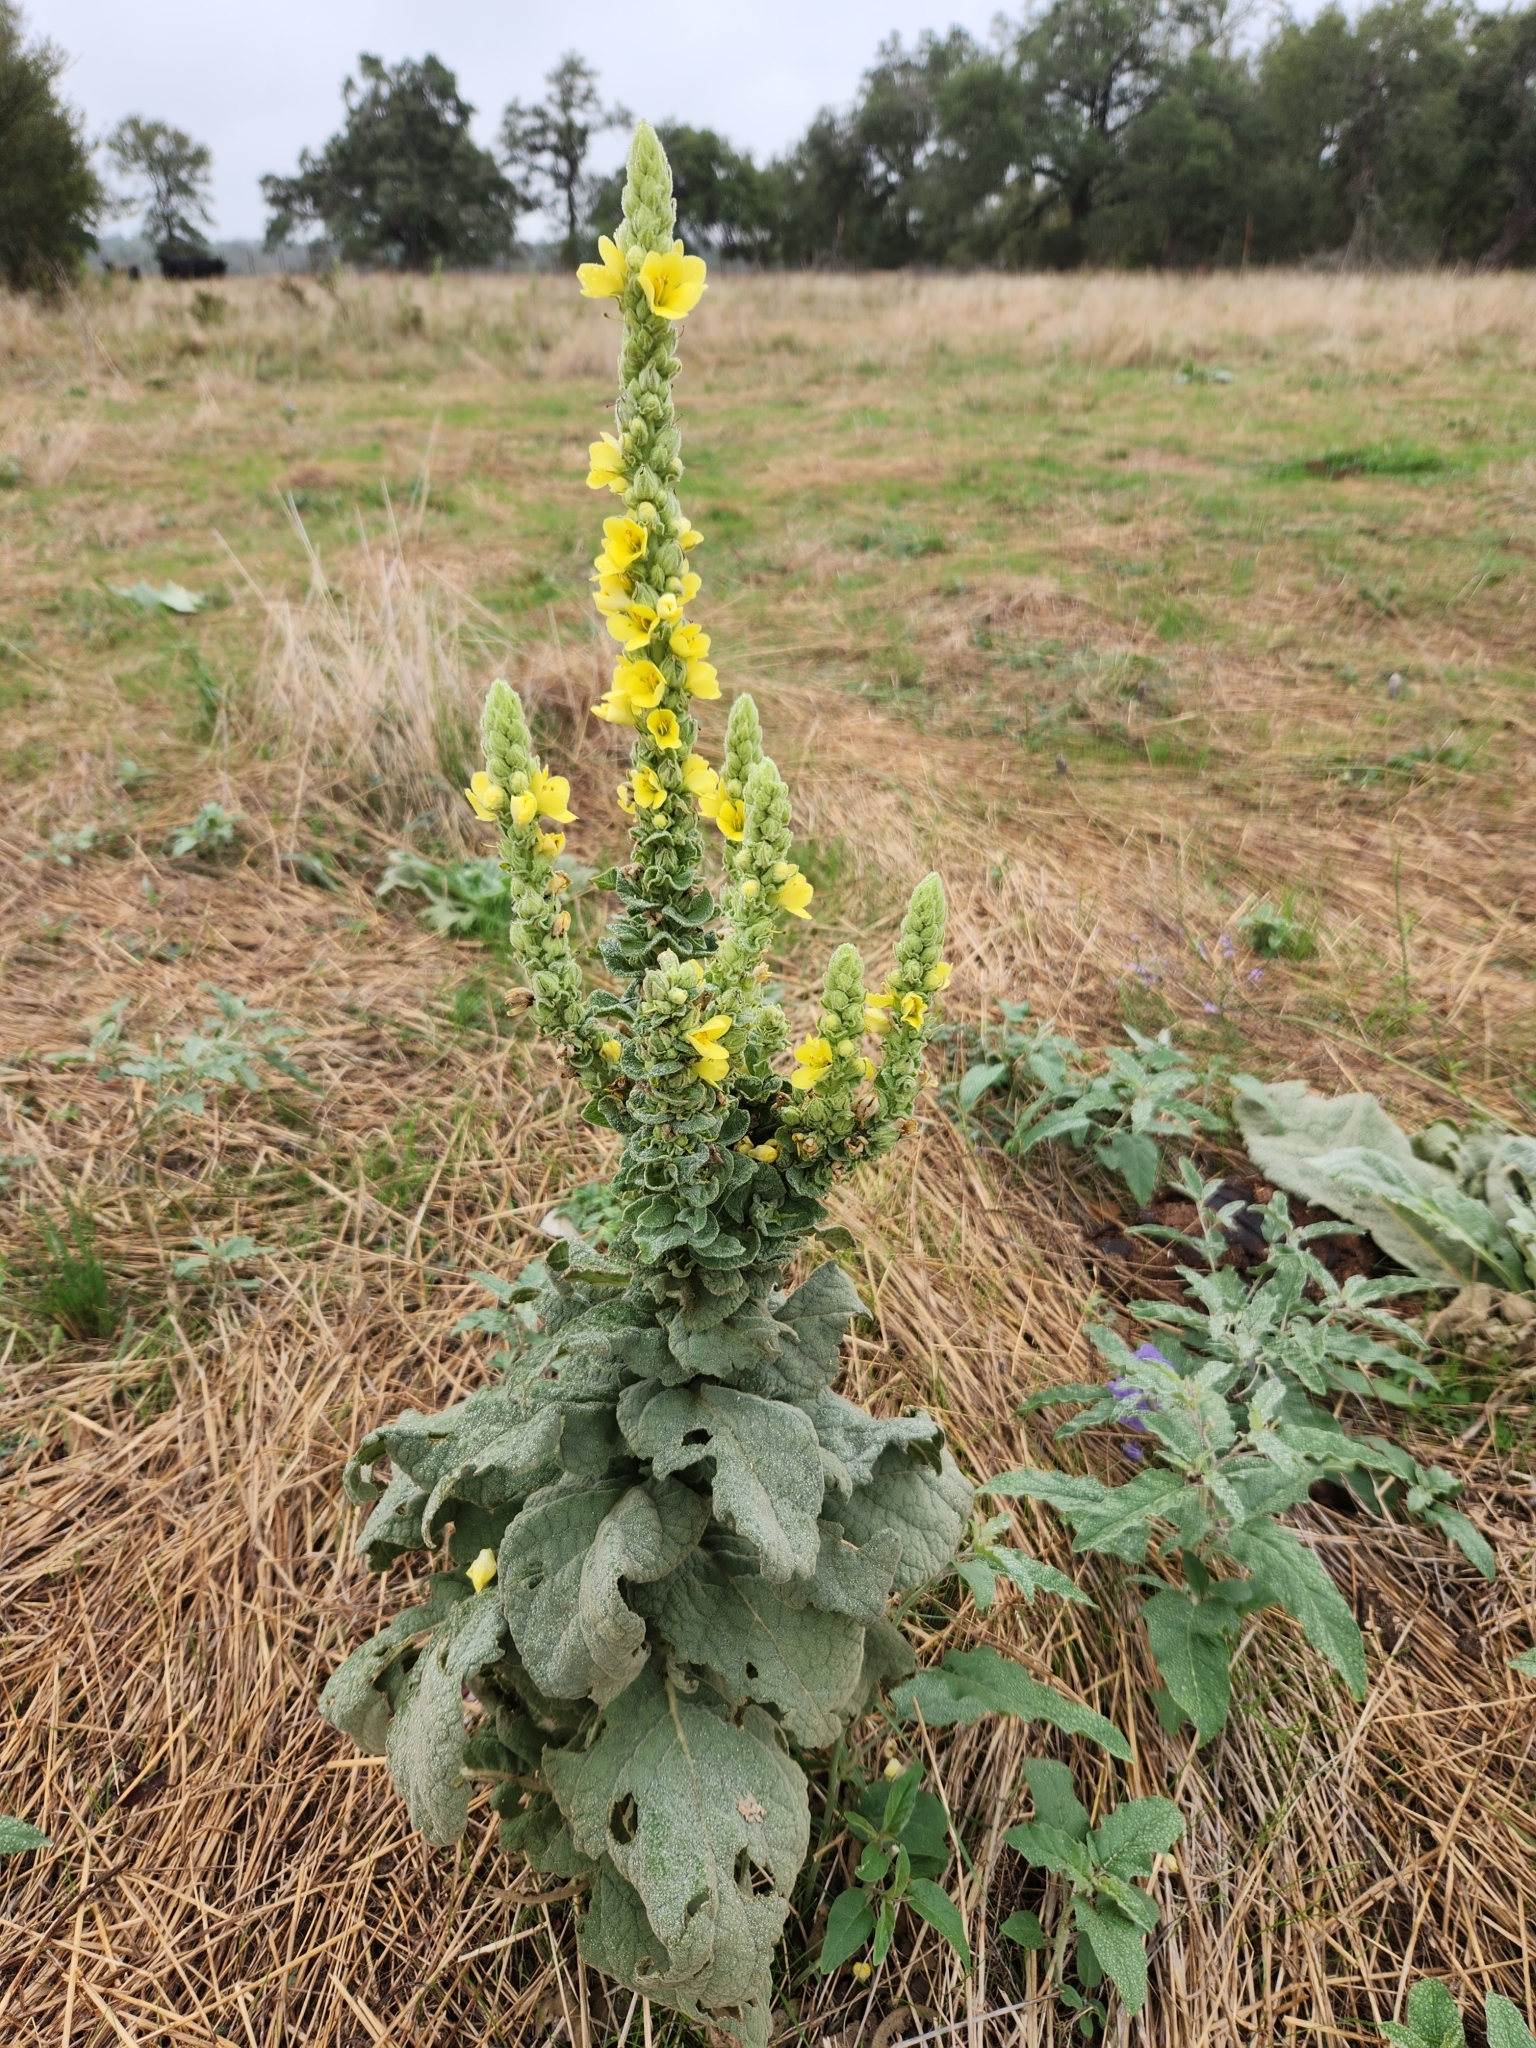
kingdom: Plantae
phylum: Tracheophyta
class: Magnoliopsida
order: Lamiales
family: Scrophulariaceae
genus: Verbascum
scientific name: Verbascum thapsus
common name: Common mullein
